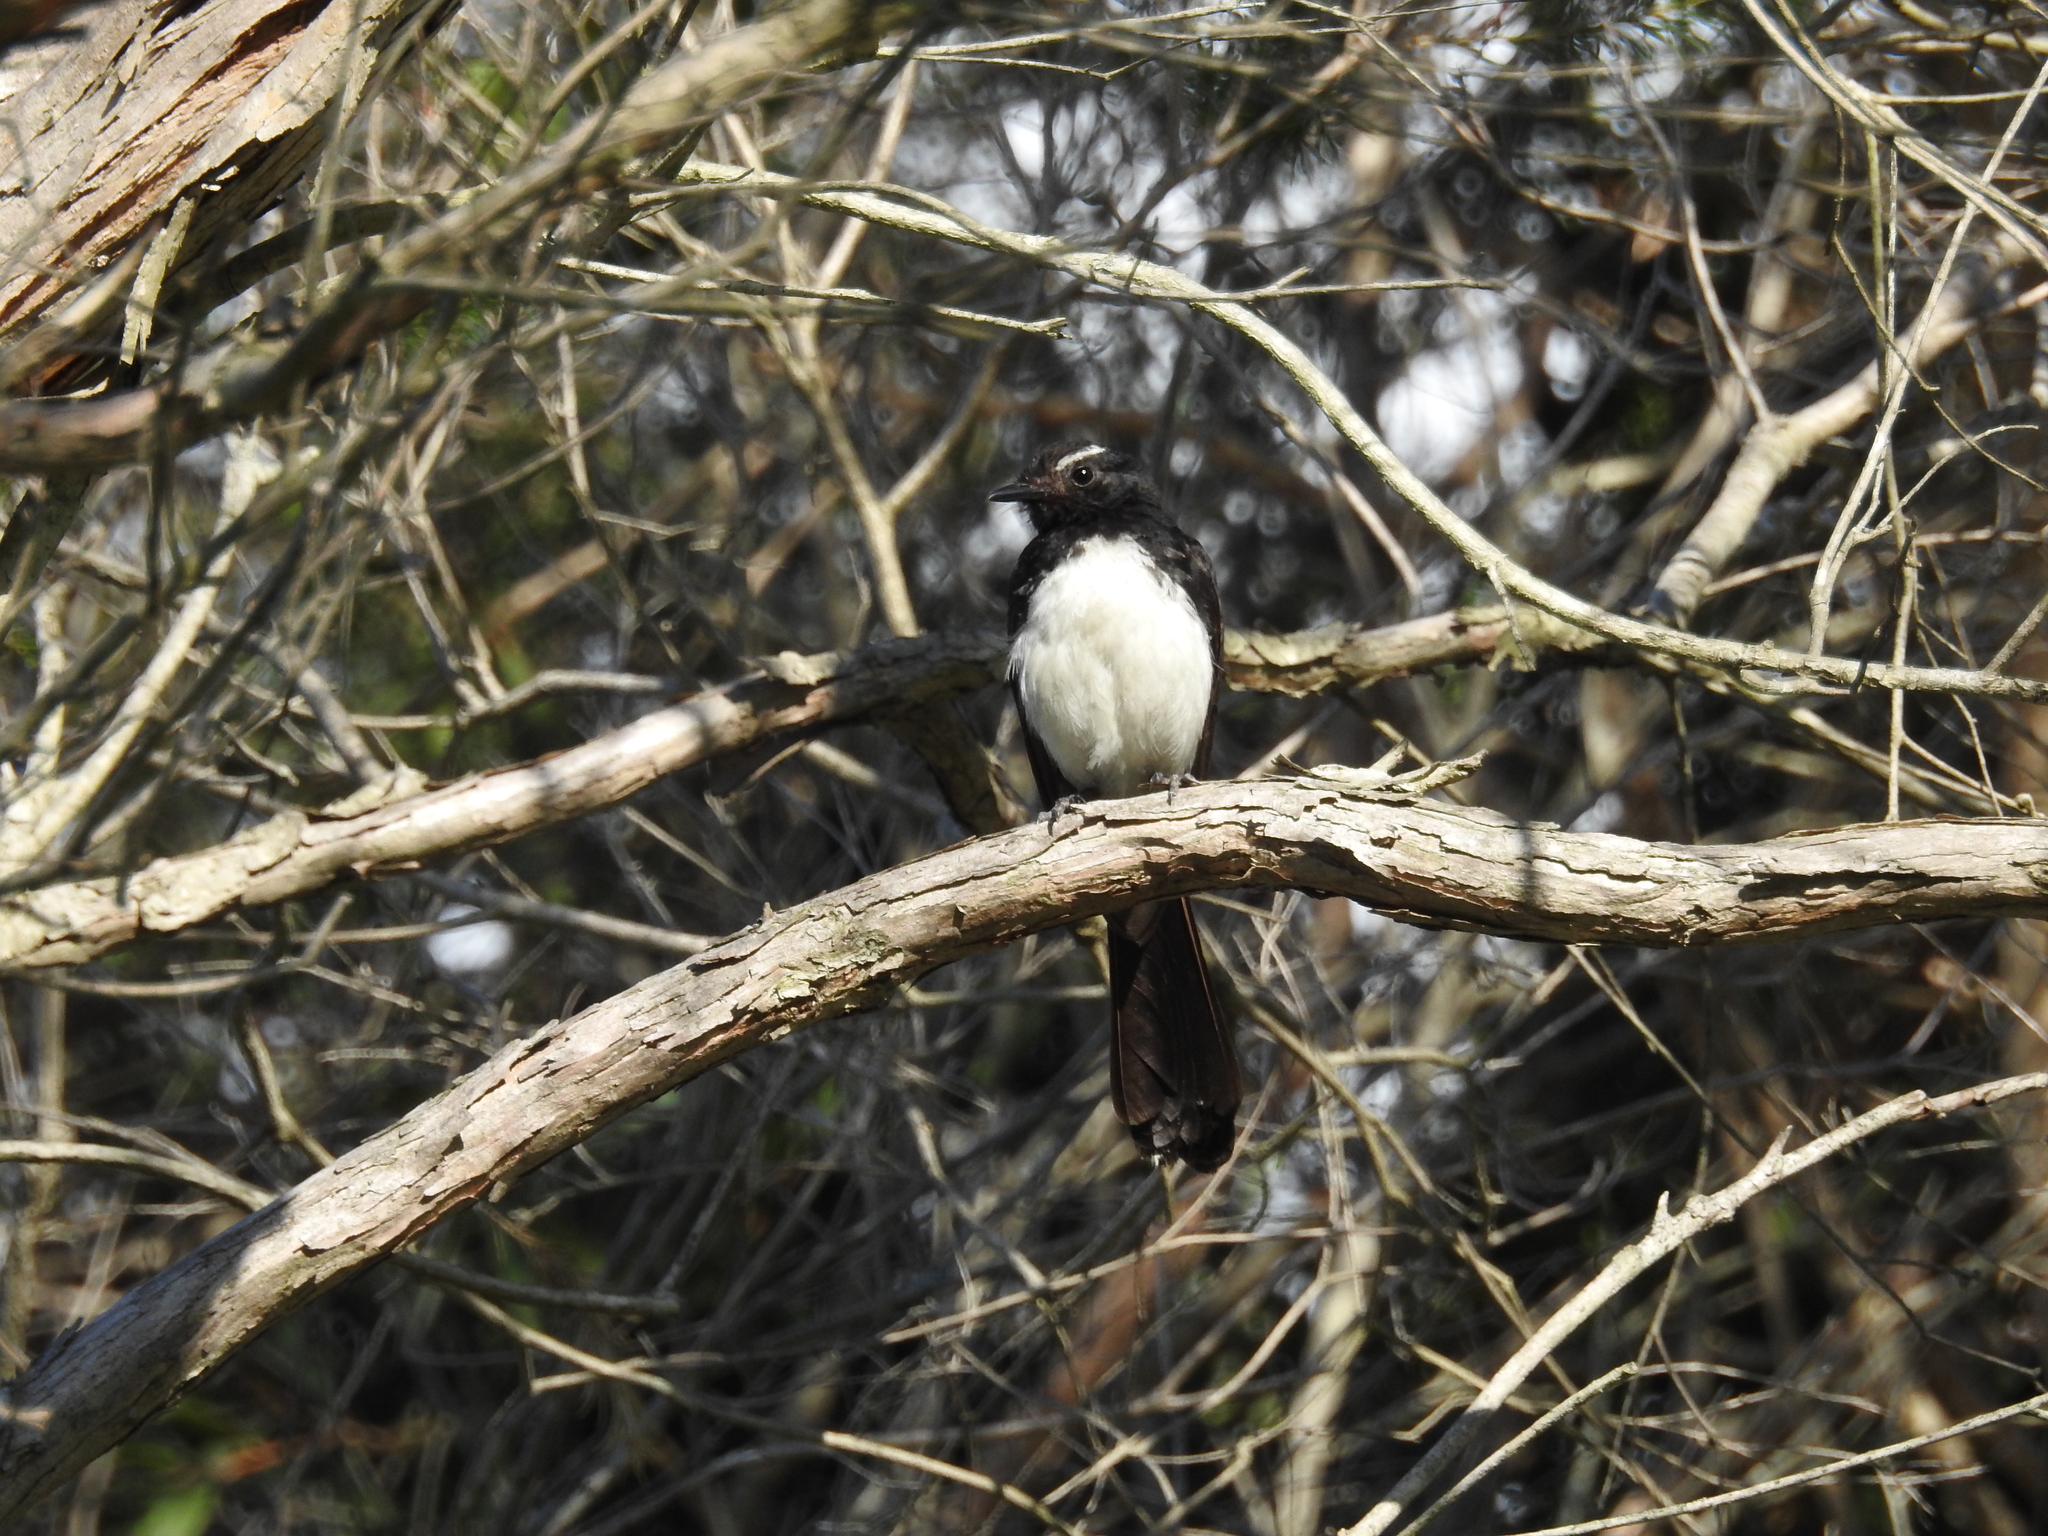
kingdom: Animalia
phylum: Chordata
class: Aves
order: Passeriformes
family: Rhipiduridae
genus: Rhipidura
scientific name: Rhipidura leucophrys
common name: Willie wagtail
